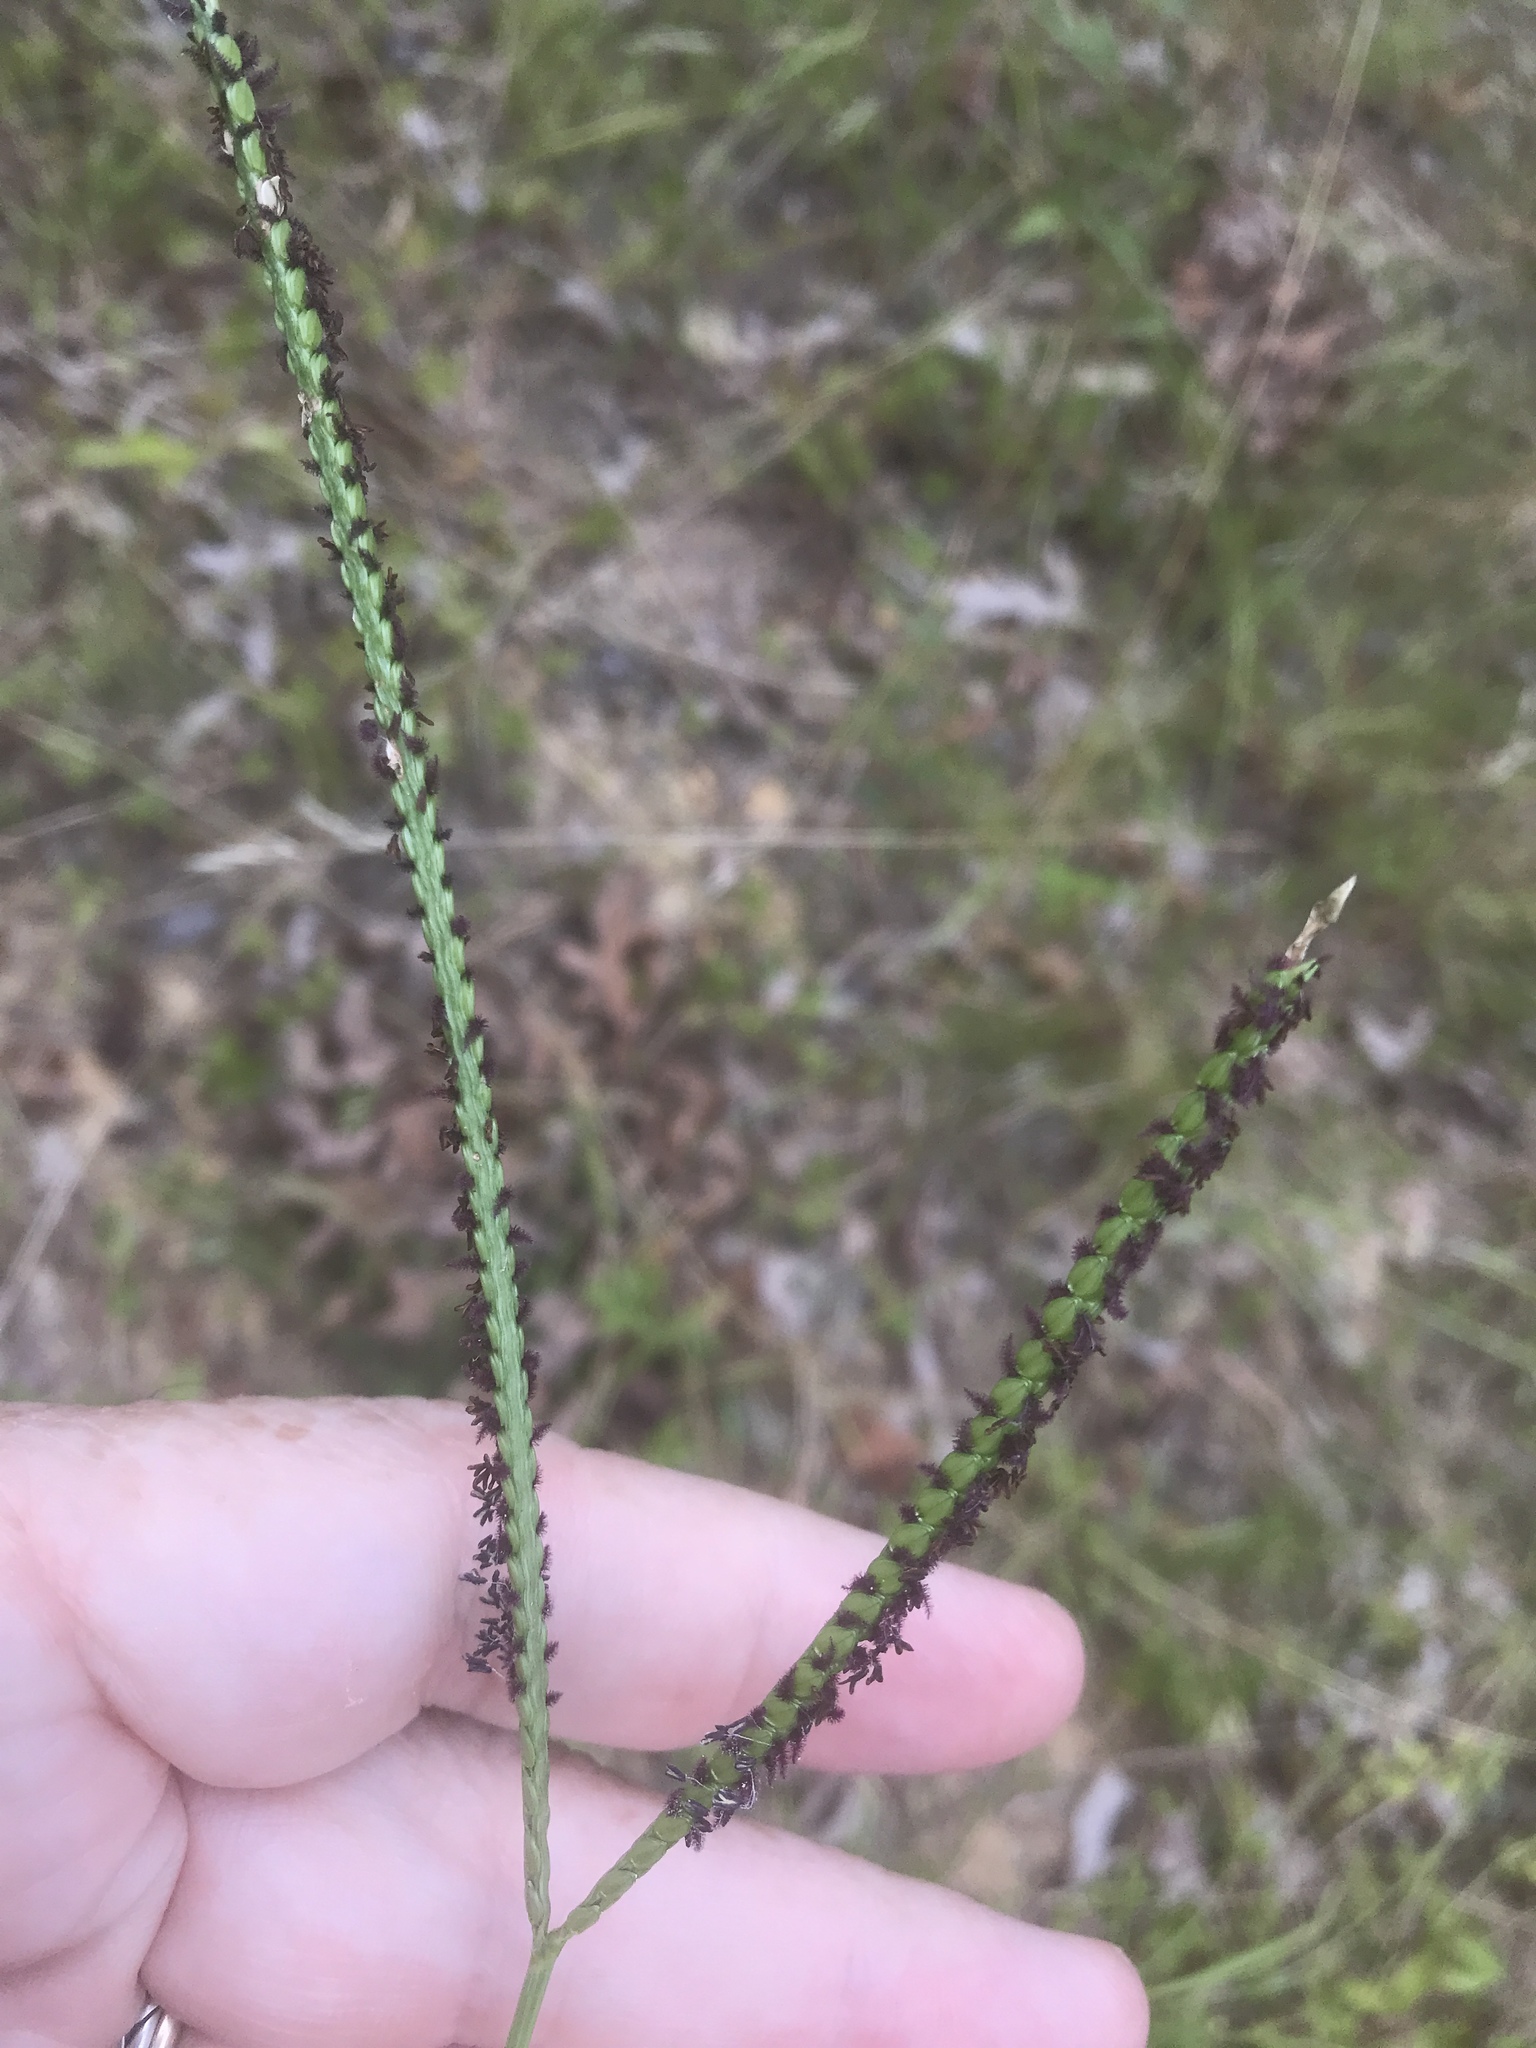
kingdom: Plantae
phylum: Tracheophyta
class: Liliopsida
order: Poales
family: Poaceae
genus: Paspalum
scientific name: Paspalum notatum
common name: Bahiagrass
